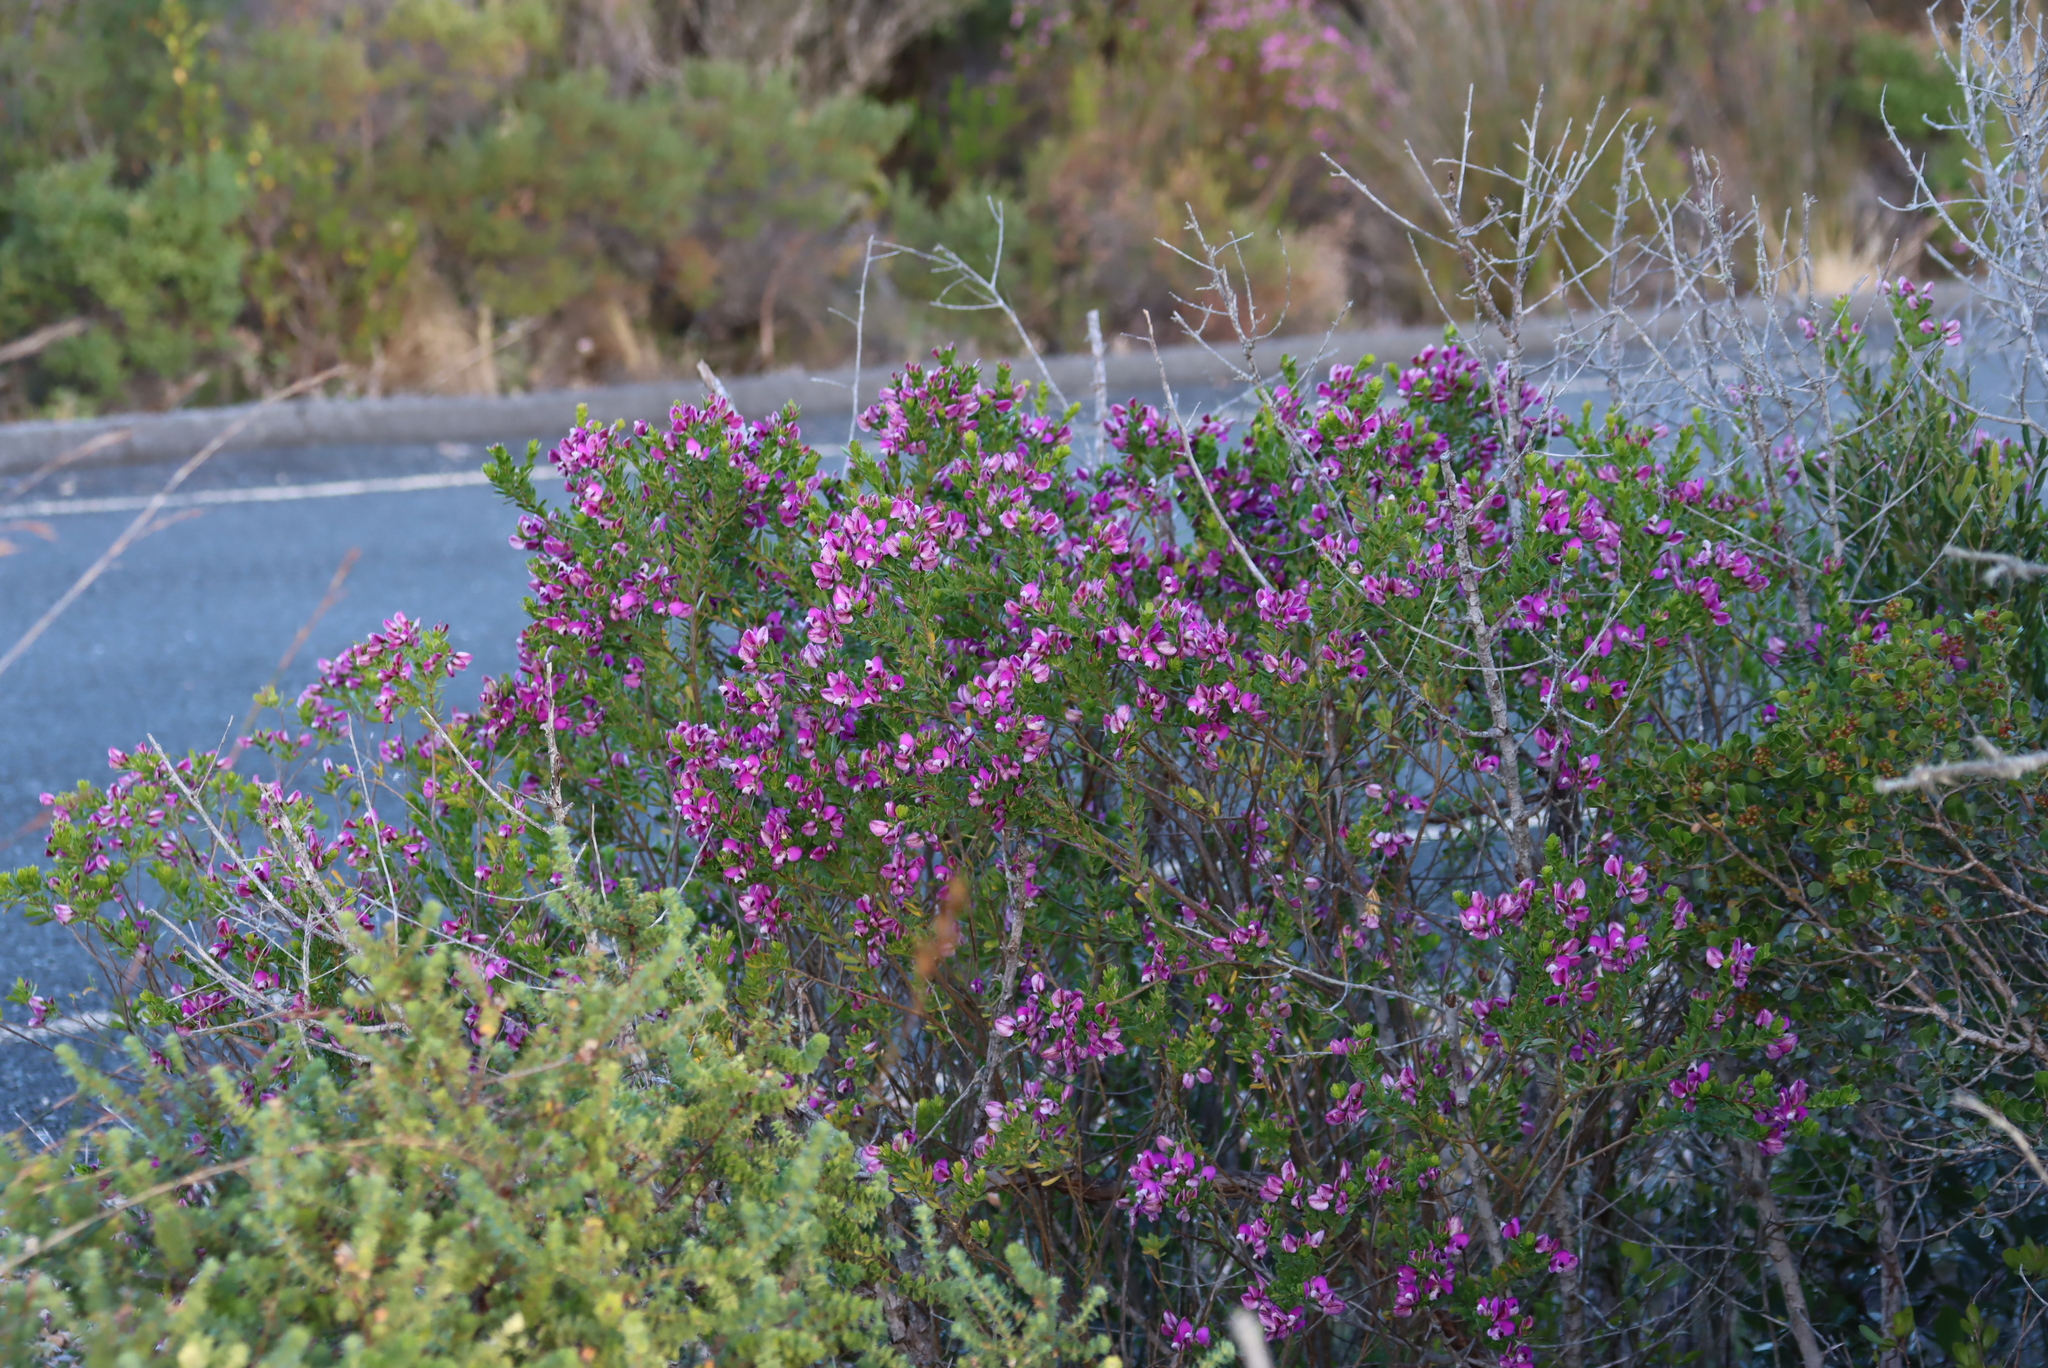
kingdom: Plantae
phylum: Tracheophyta
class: Magnoliopsida
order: Fabales
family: Polygalaceae
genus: Polygala
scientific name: Polygala myrtifolia
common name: Myrtle-leaf milkwort
